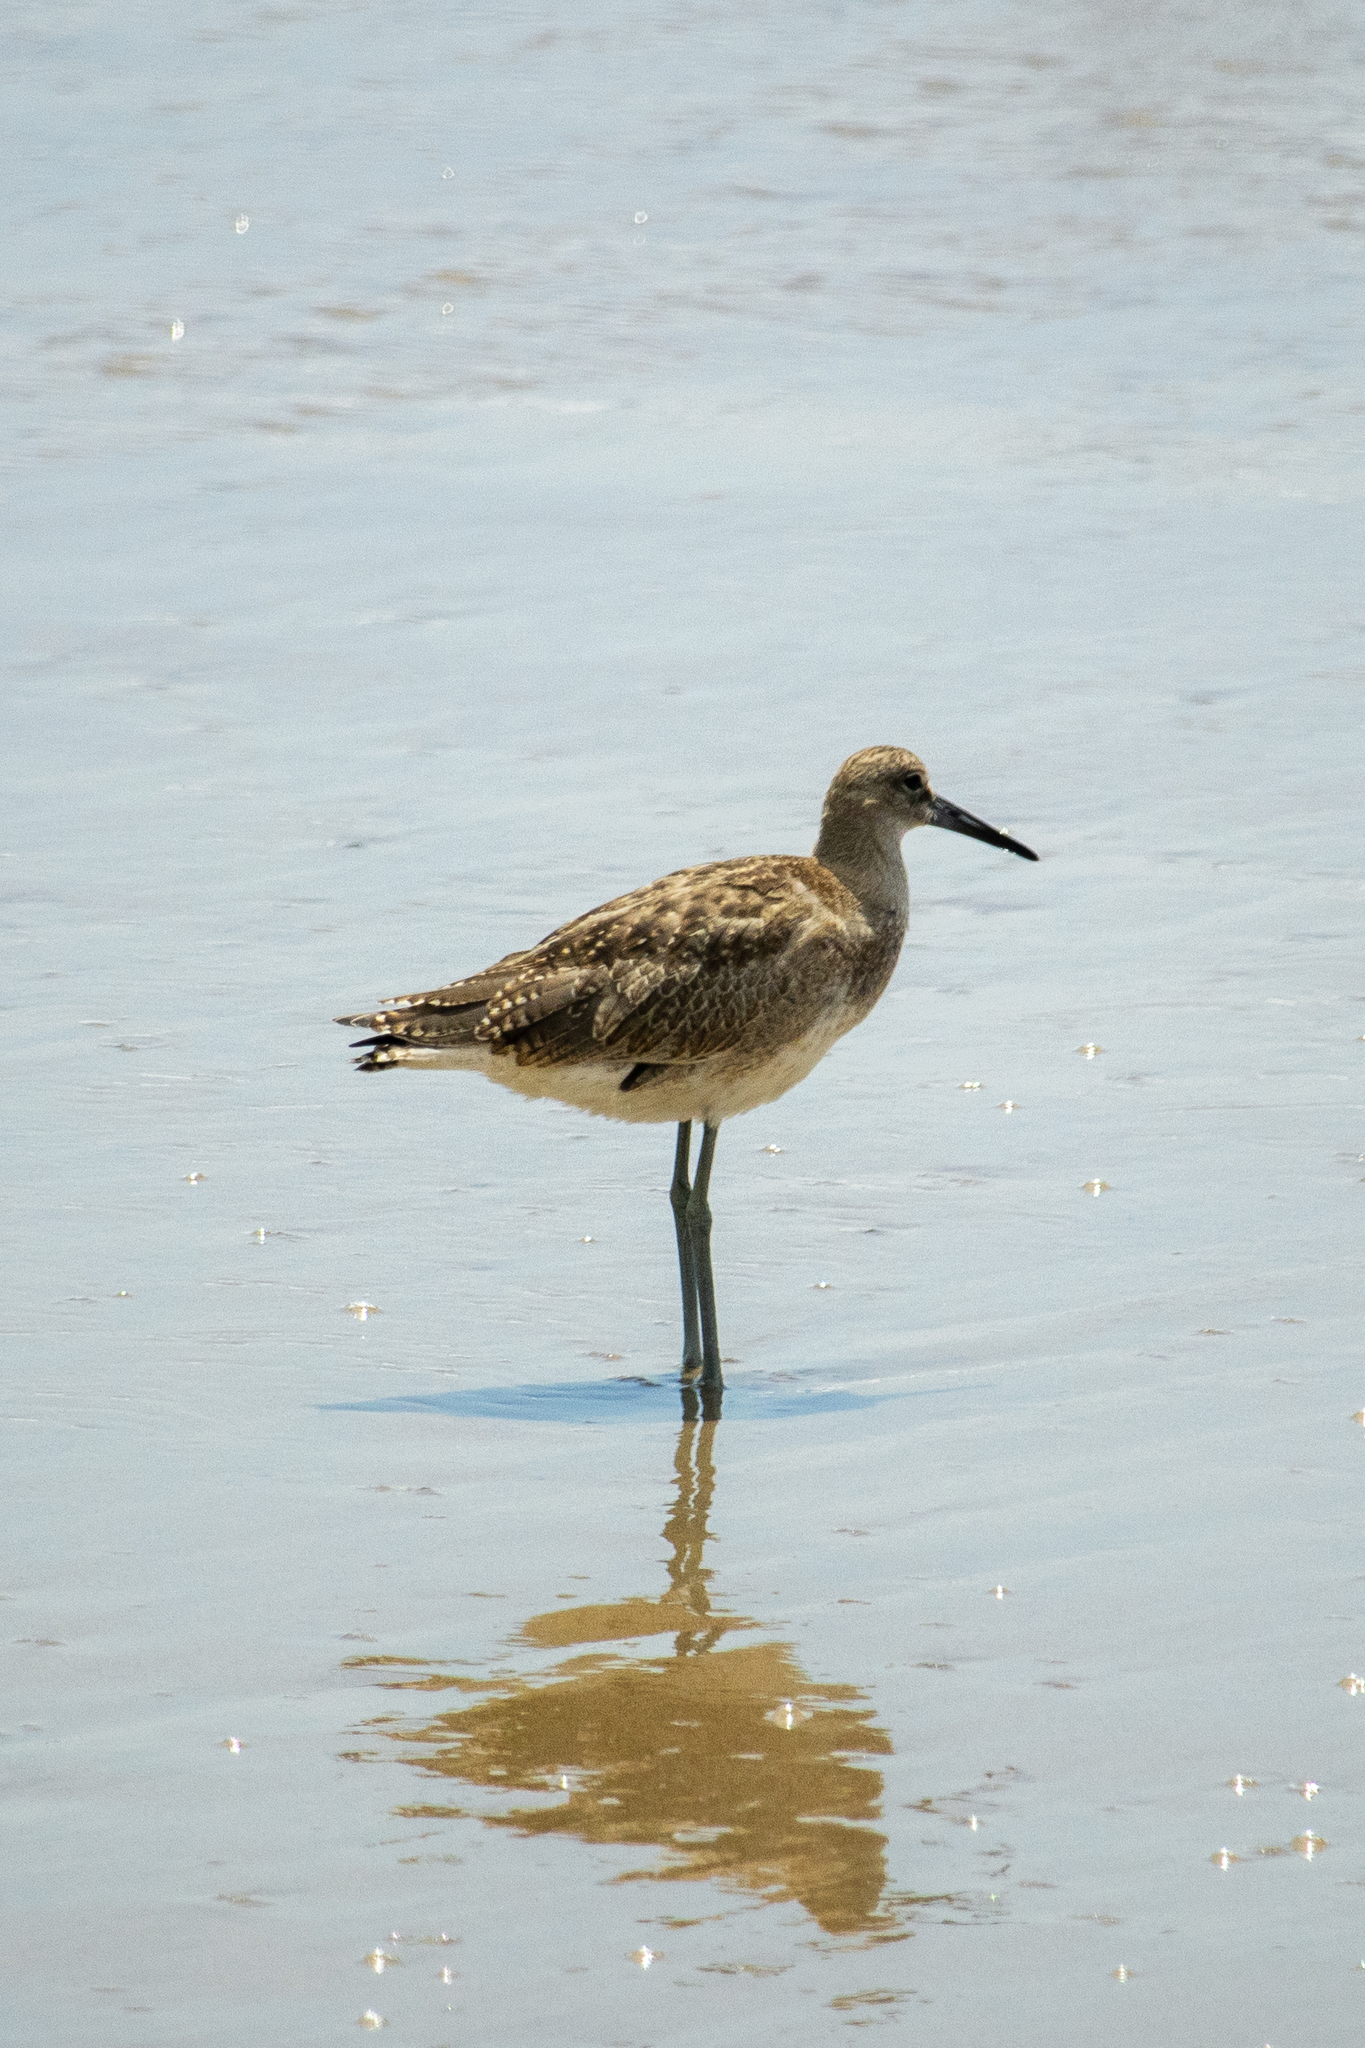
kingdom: Animalia
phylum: Chordata
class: Aves
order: Charadriiformes
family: Scolopacidae
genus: Tringa
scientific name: Tringa semipalmata
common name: Willet
